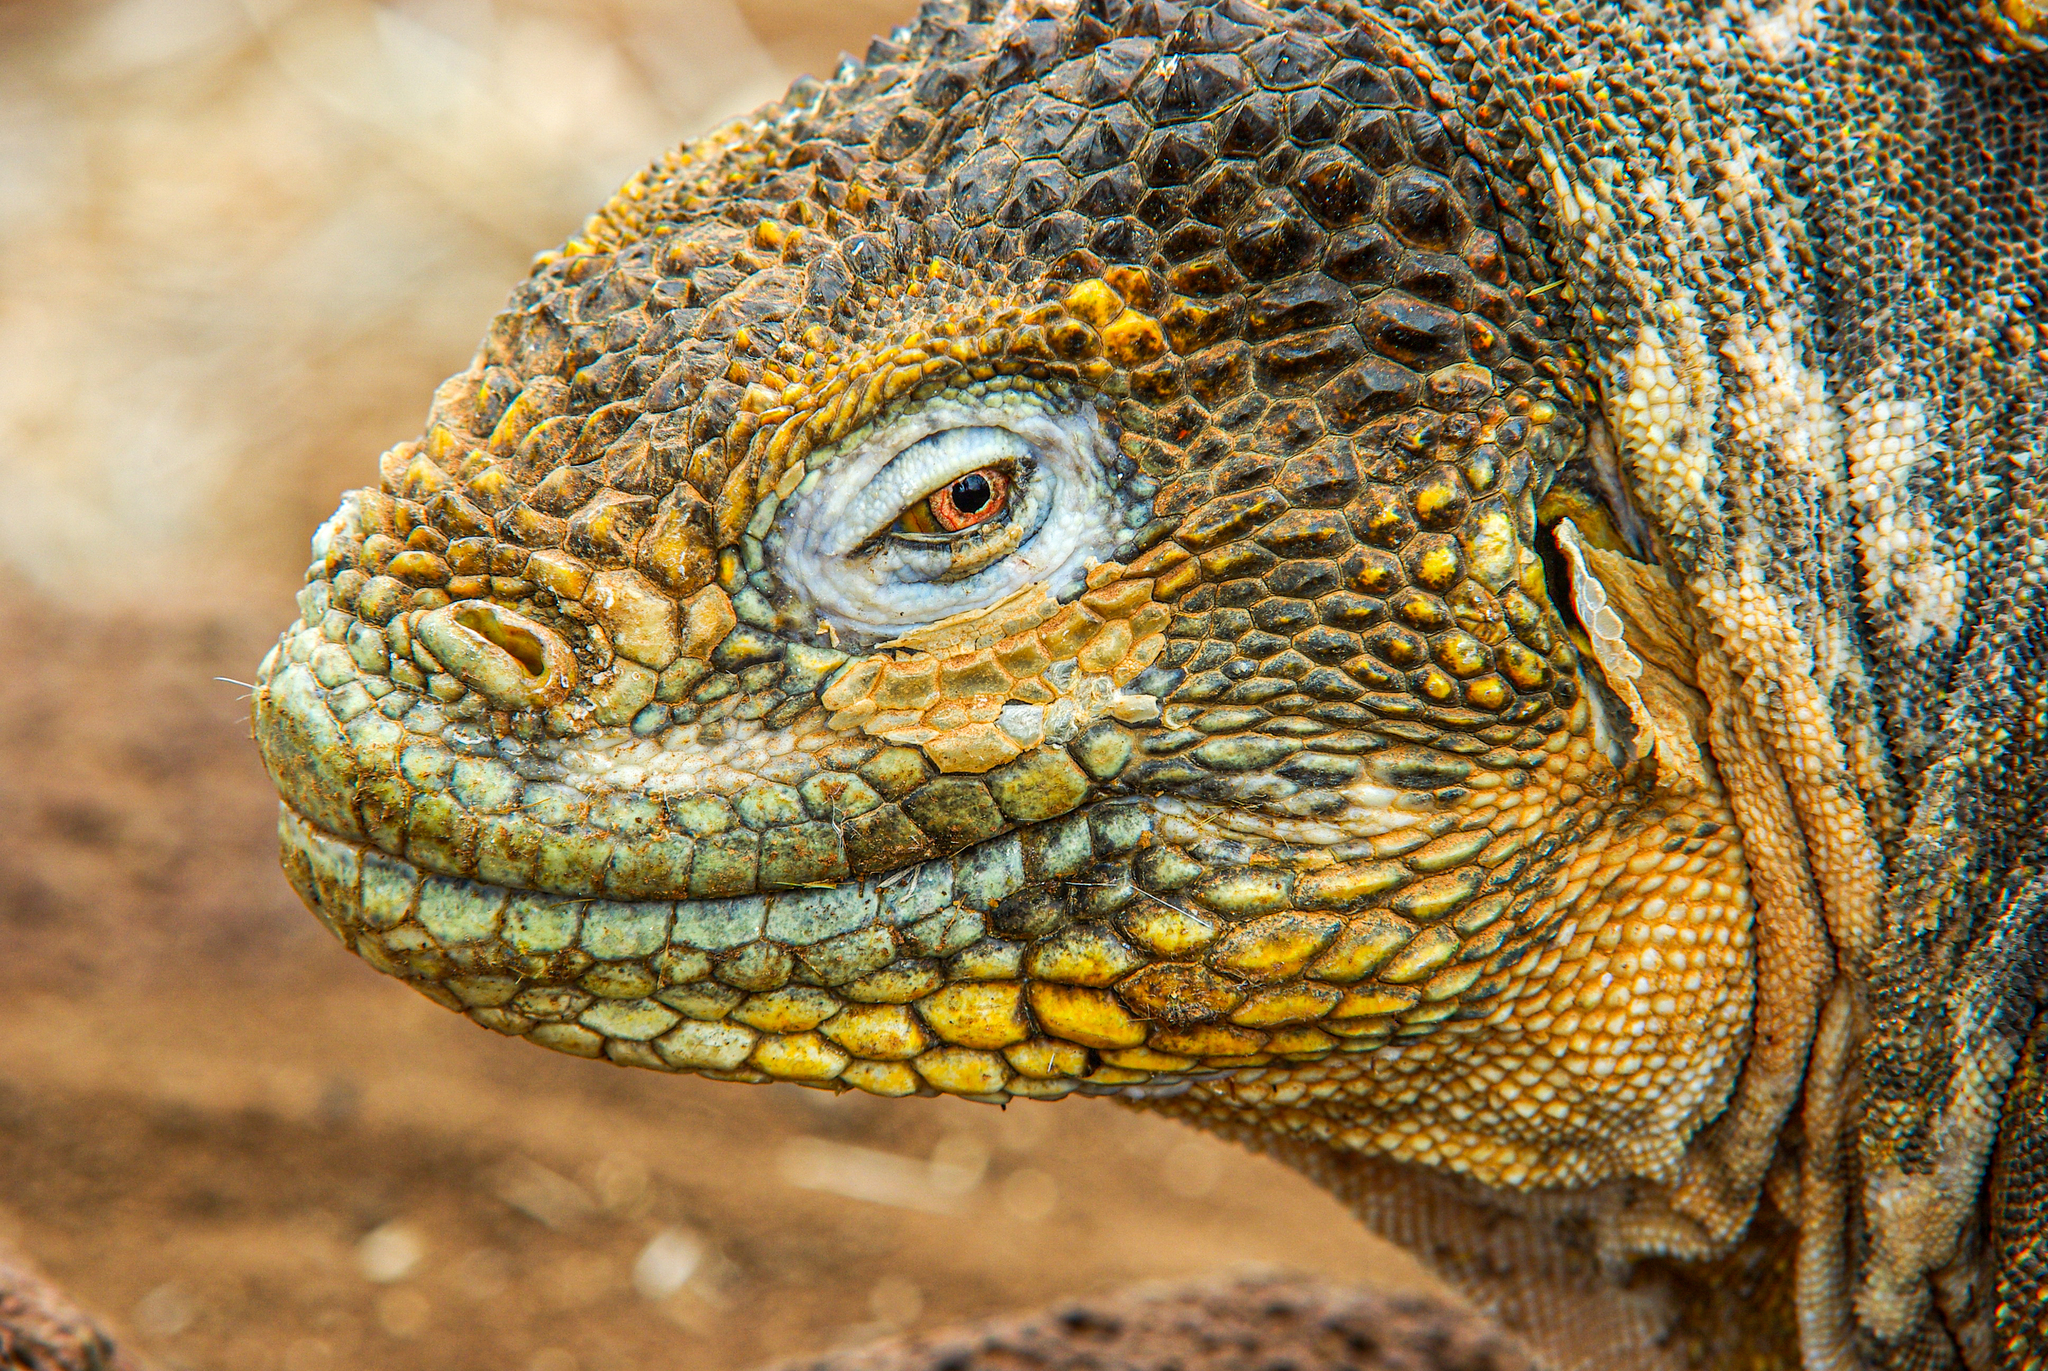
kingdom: Animalia
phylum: Chordata
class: Squamata
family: Iguanidae
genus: Conolophus
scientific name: Conolophus subcristatus
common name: Galapagos land iguana
